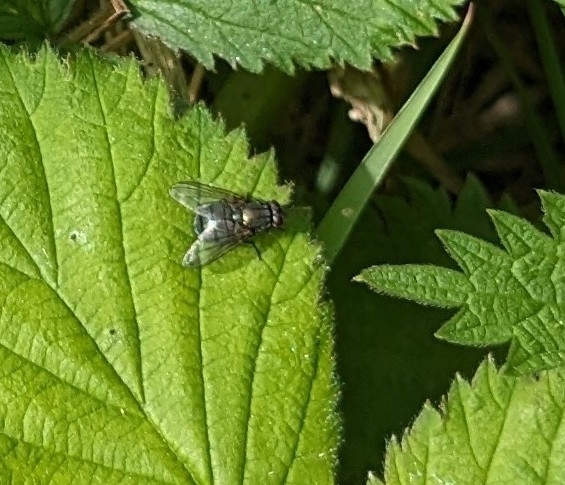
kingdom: Animalia
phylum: Arthropoda
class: Insecta
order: Diptera
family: Muscidae
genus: Dasyphora
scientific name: Dasyphora cyanella
